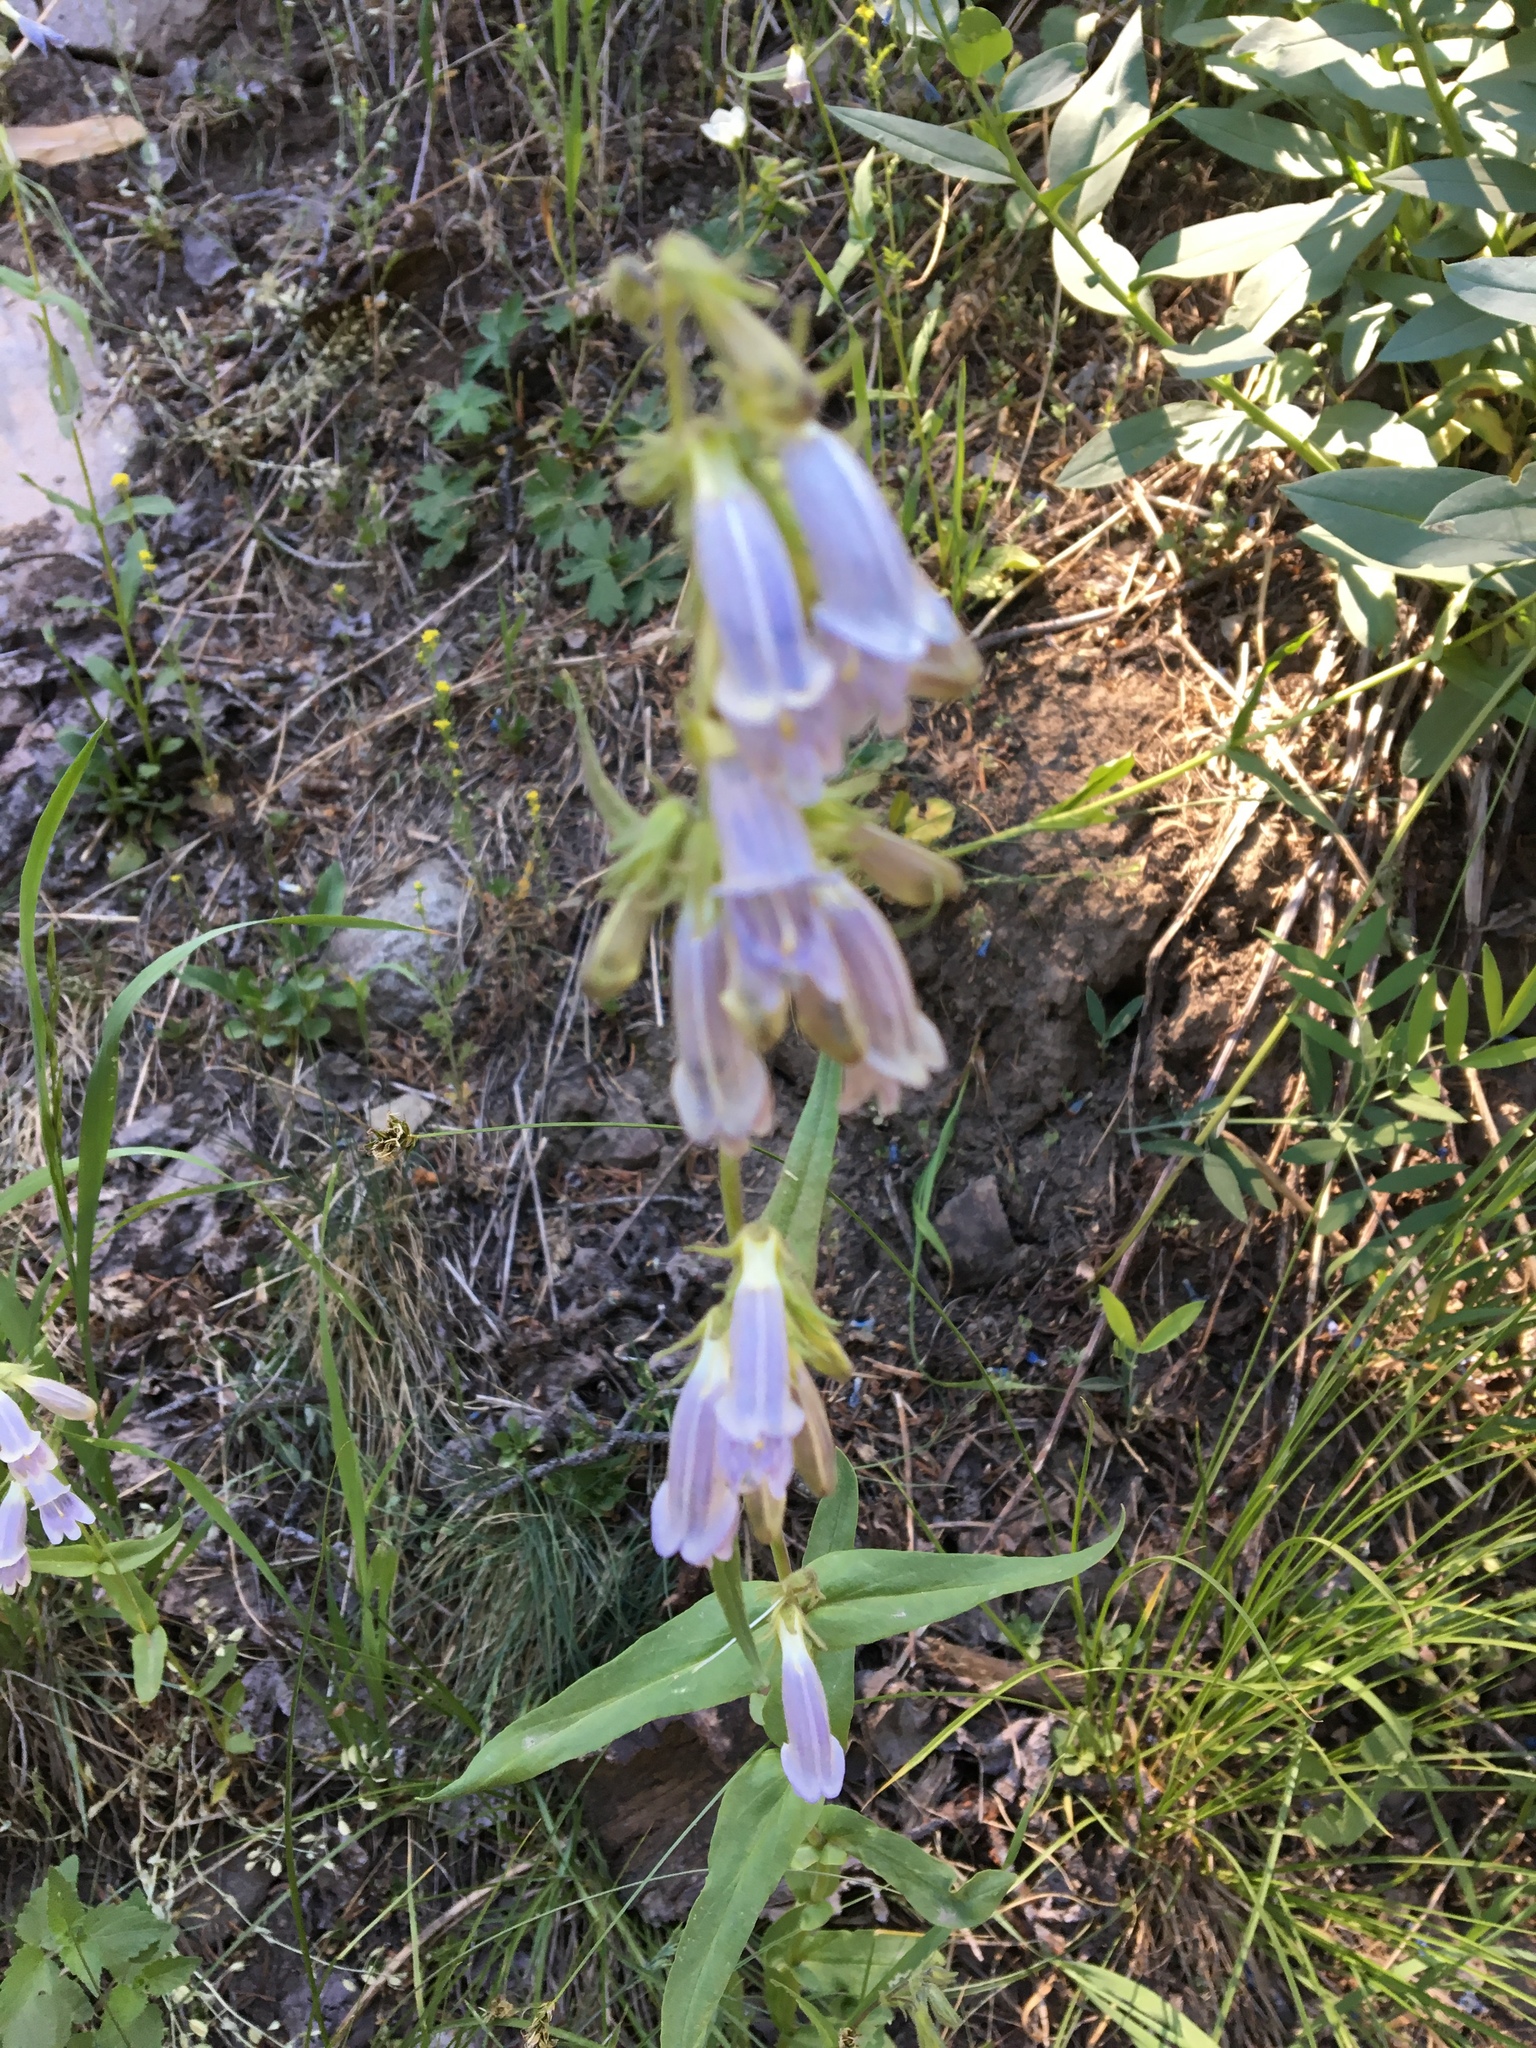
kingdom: Plantae
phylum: Tracheophyta
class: Magnoliopsida
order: Lamiales
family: Plantaginaceae
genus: Penstemon
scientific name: Penstemon whippleanus
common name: Whipple's penstemon
